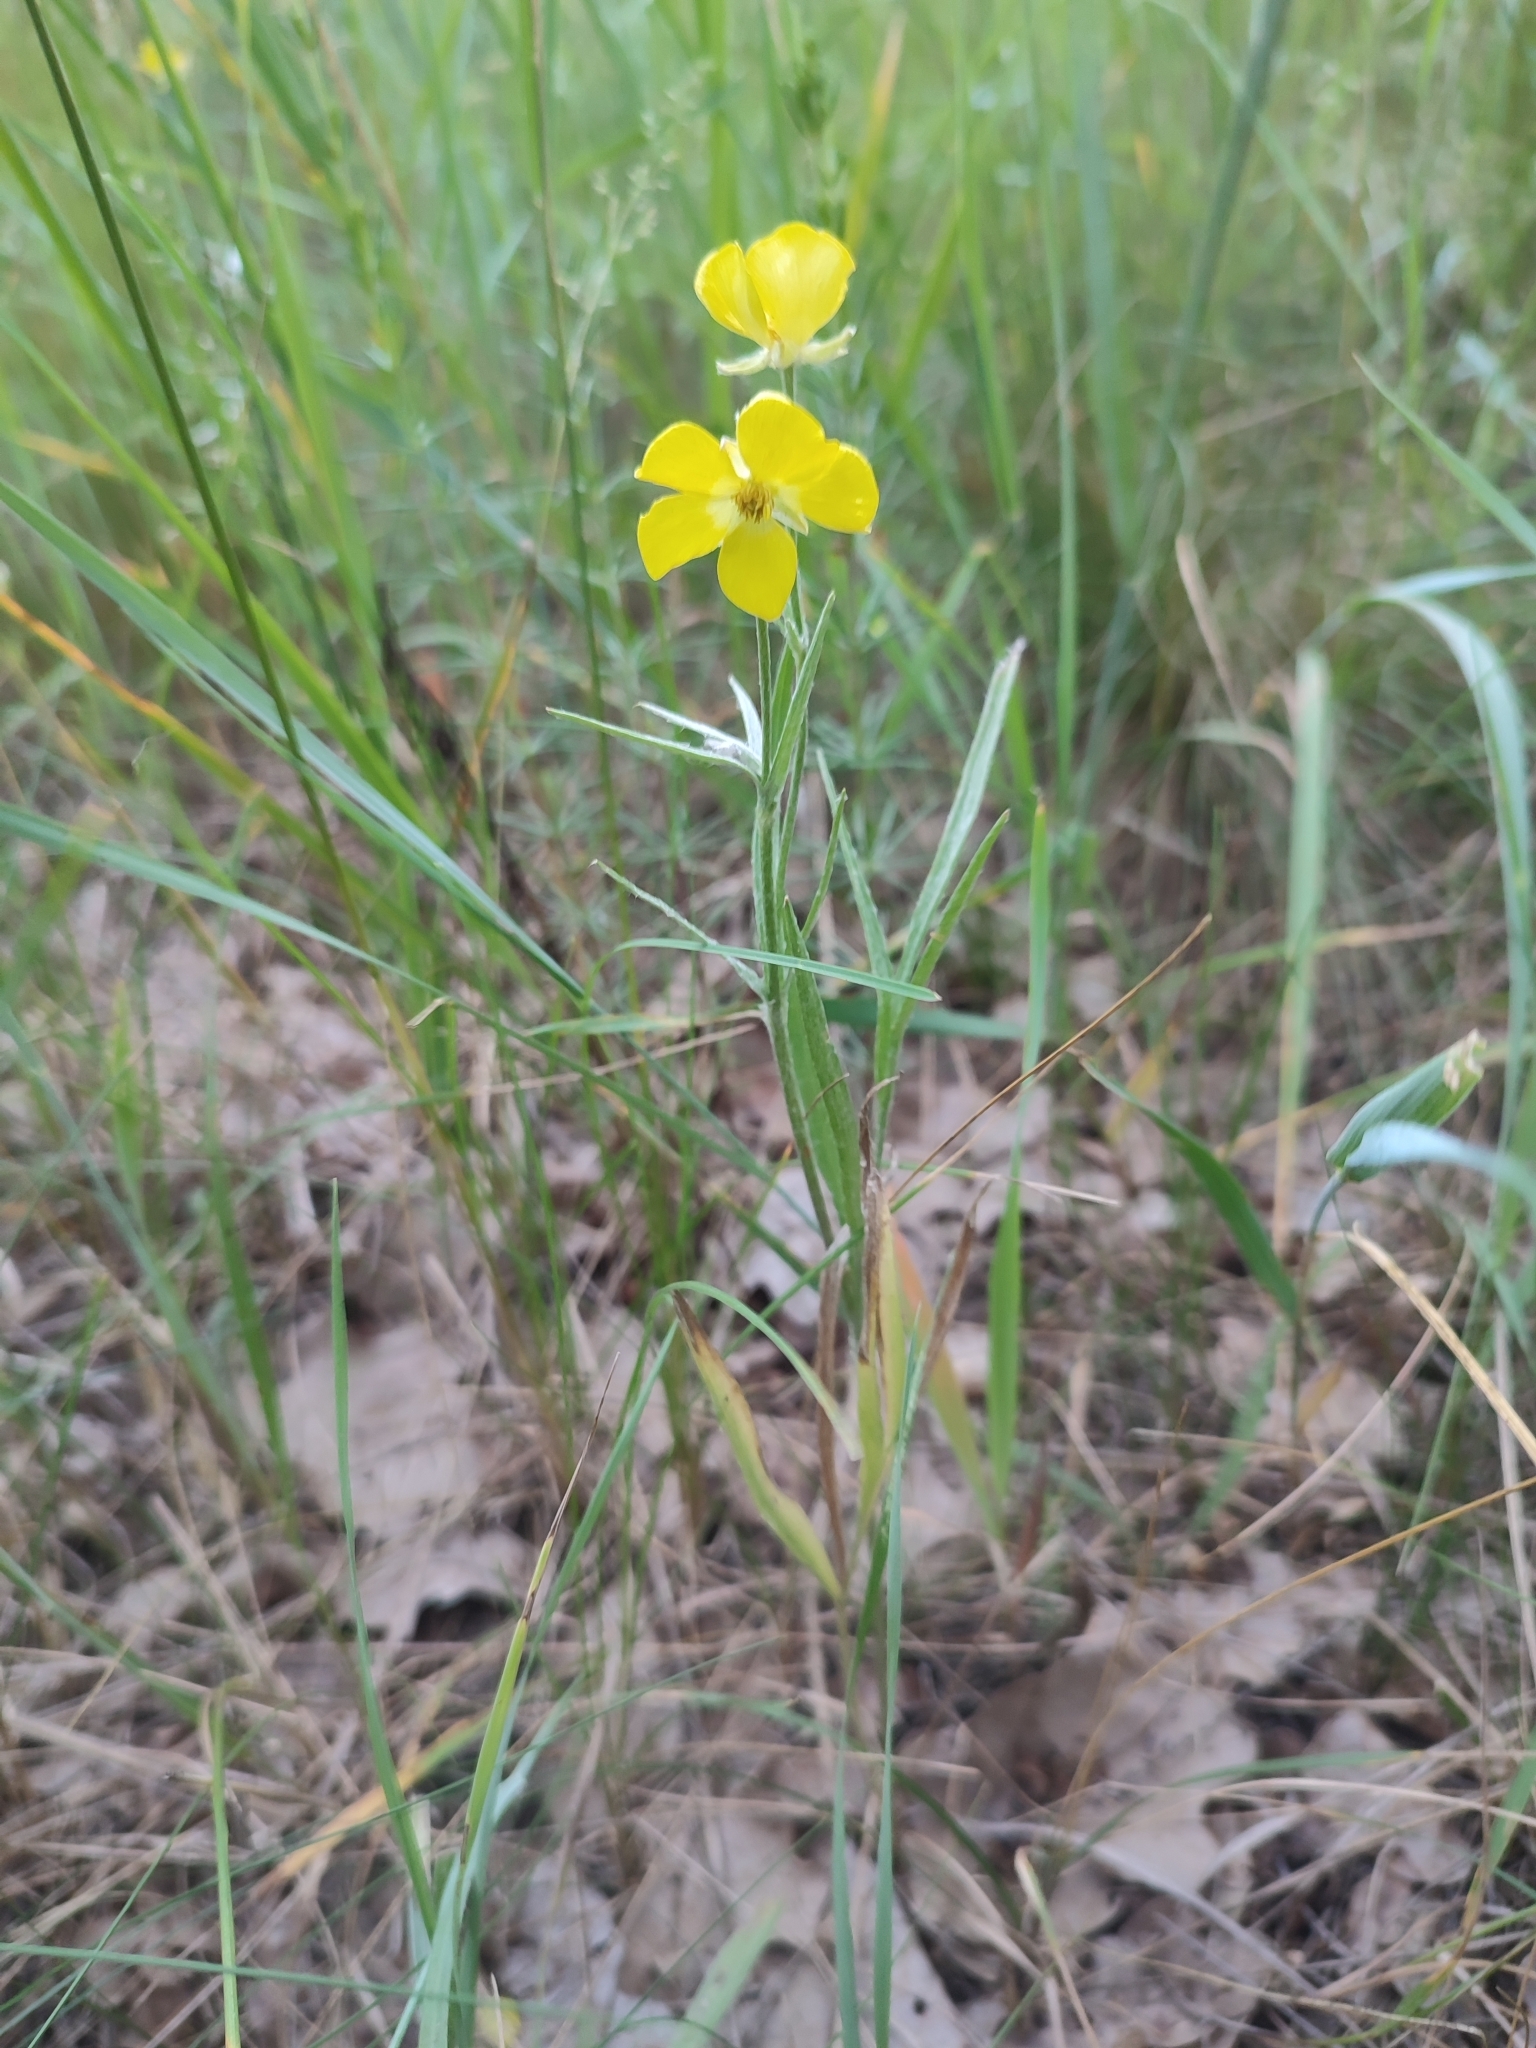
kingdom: Plantae
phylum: Tracheophyta
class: Magnoliopsida
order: Ranunculales
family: Ranunculaceae
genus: Ranunculus
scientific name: Ranunculus illyricus
